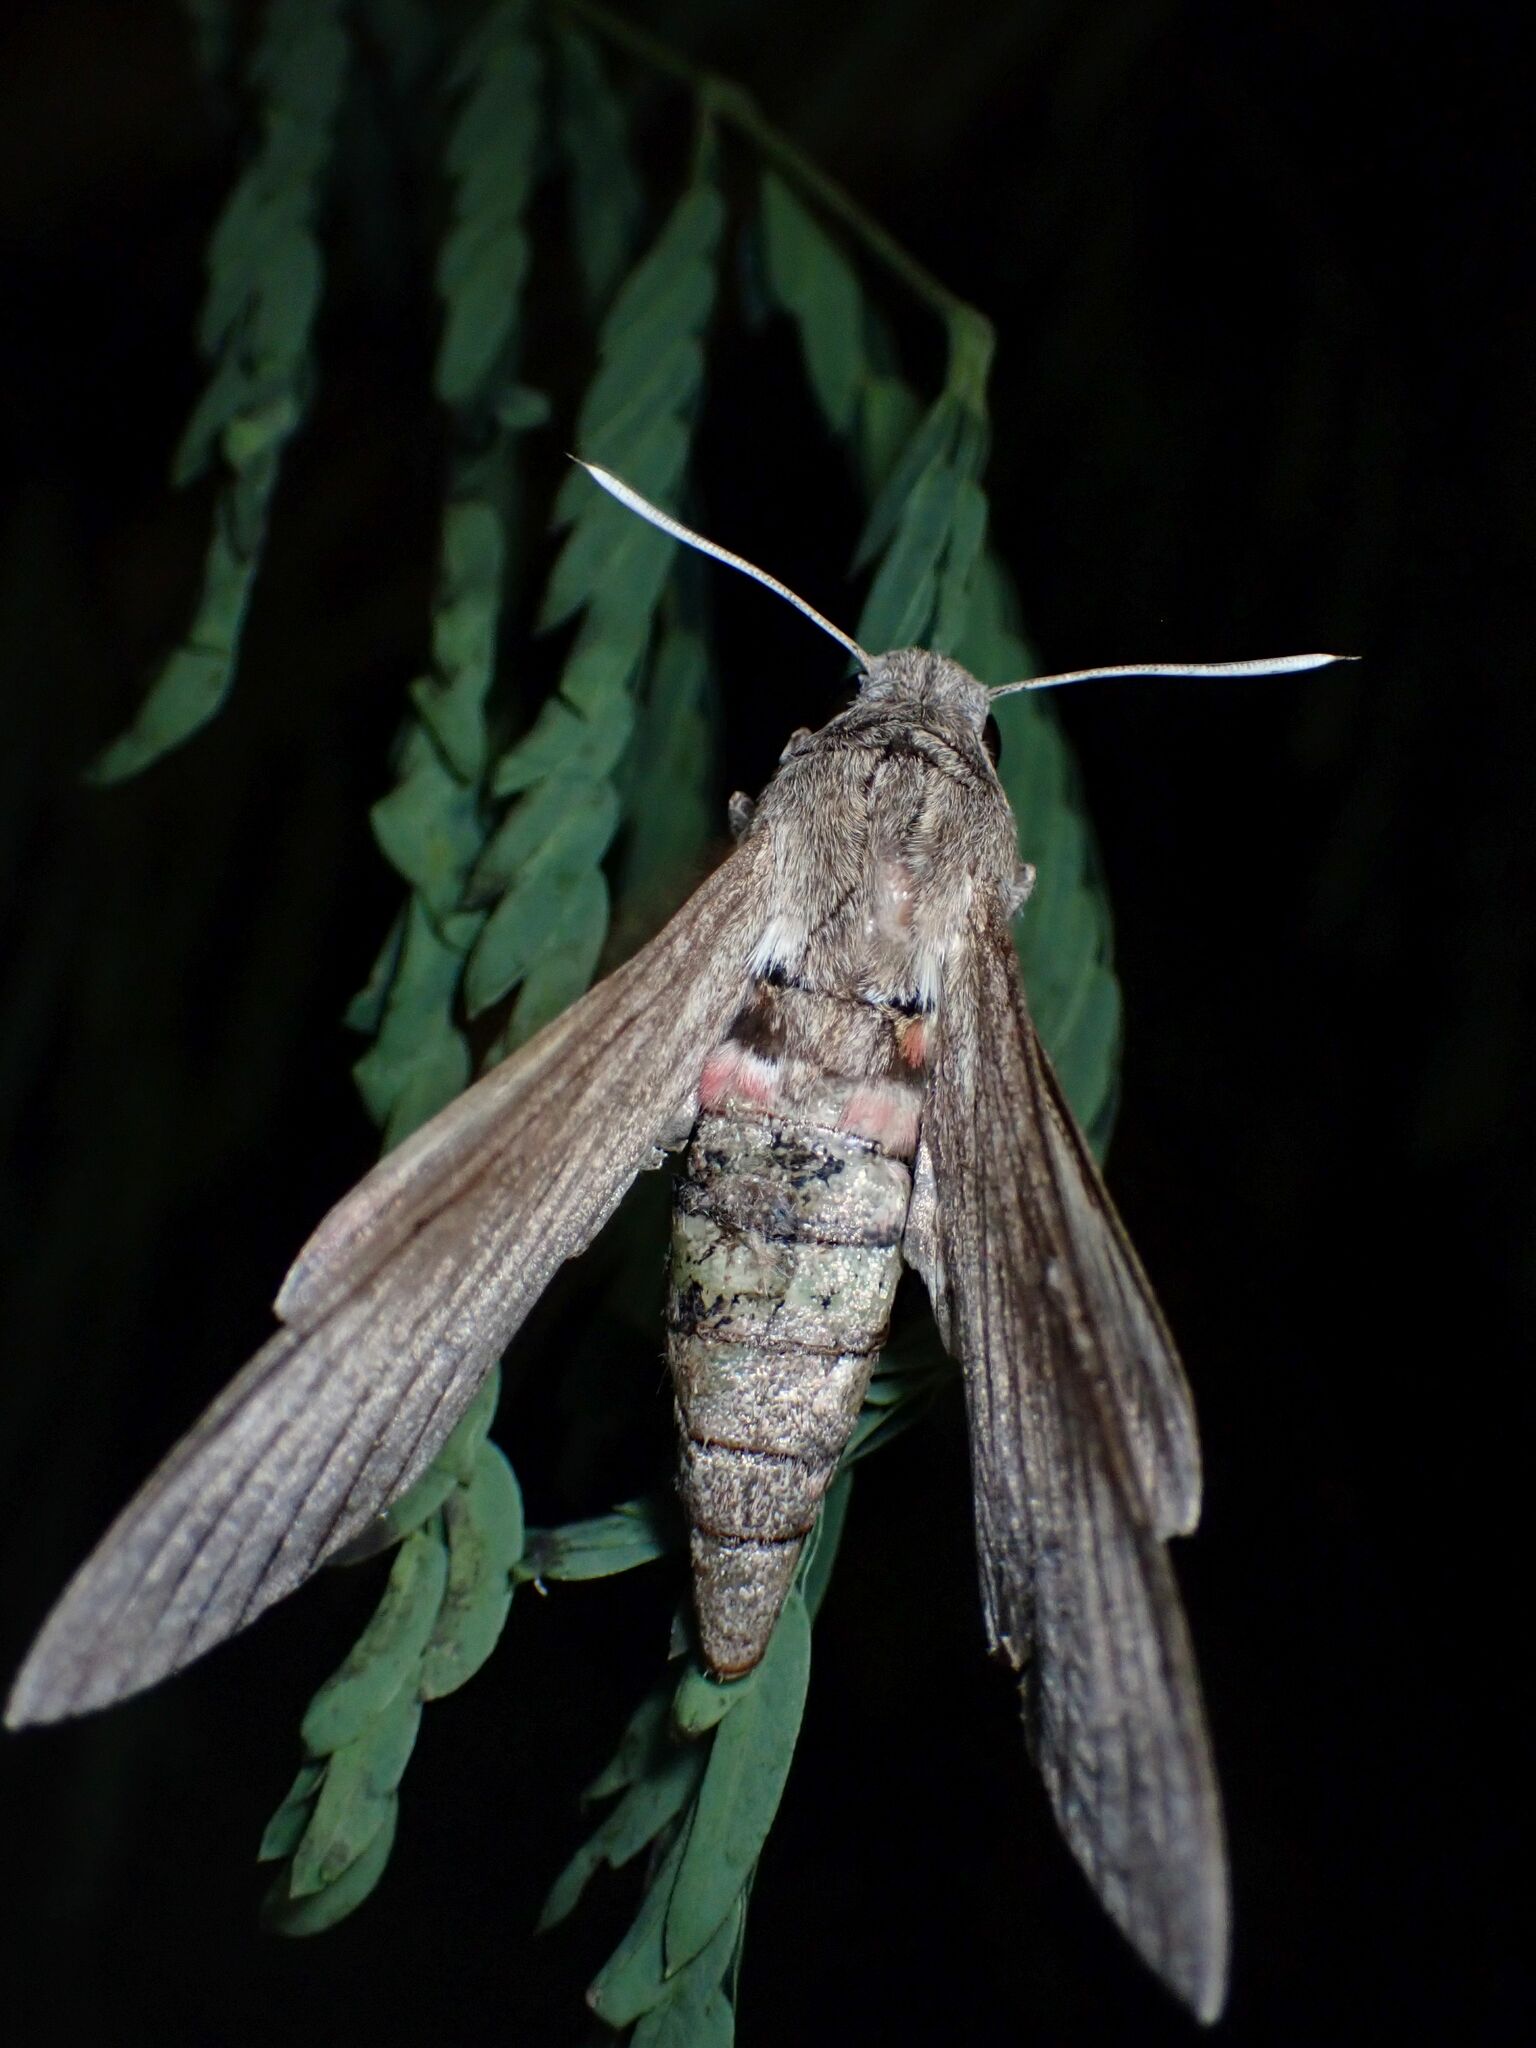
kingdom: Animalia
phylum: Arthropoda
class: Insecta
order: Lepidoptera
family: Sphingidae
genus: Agrius
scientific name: Agrius convolvuli
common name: Convolvulus hawkmoth
